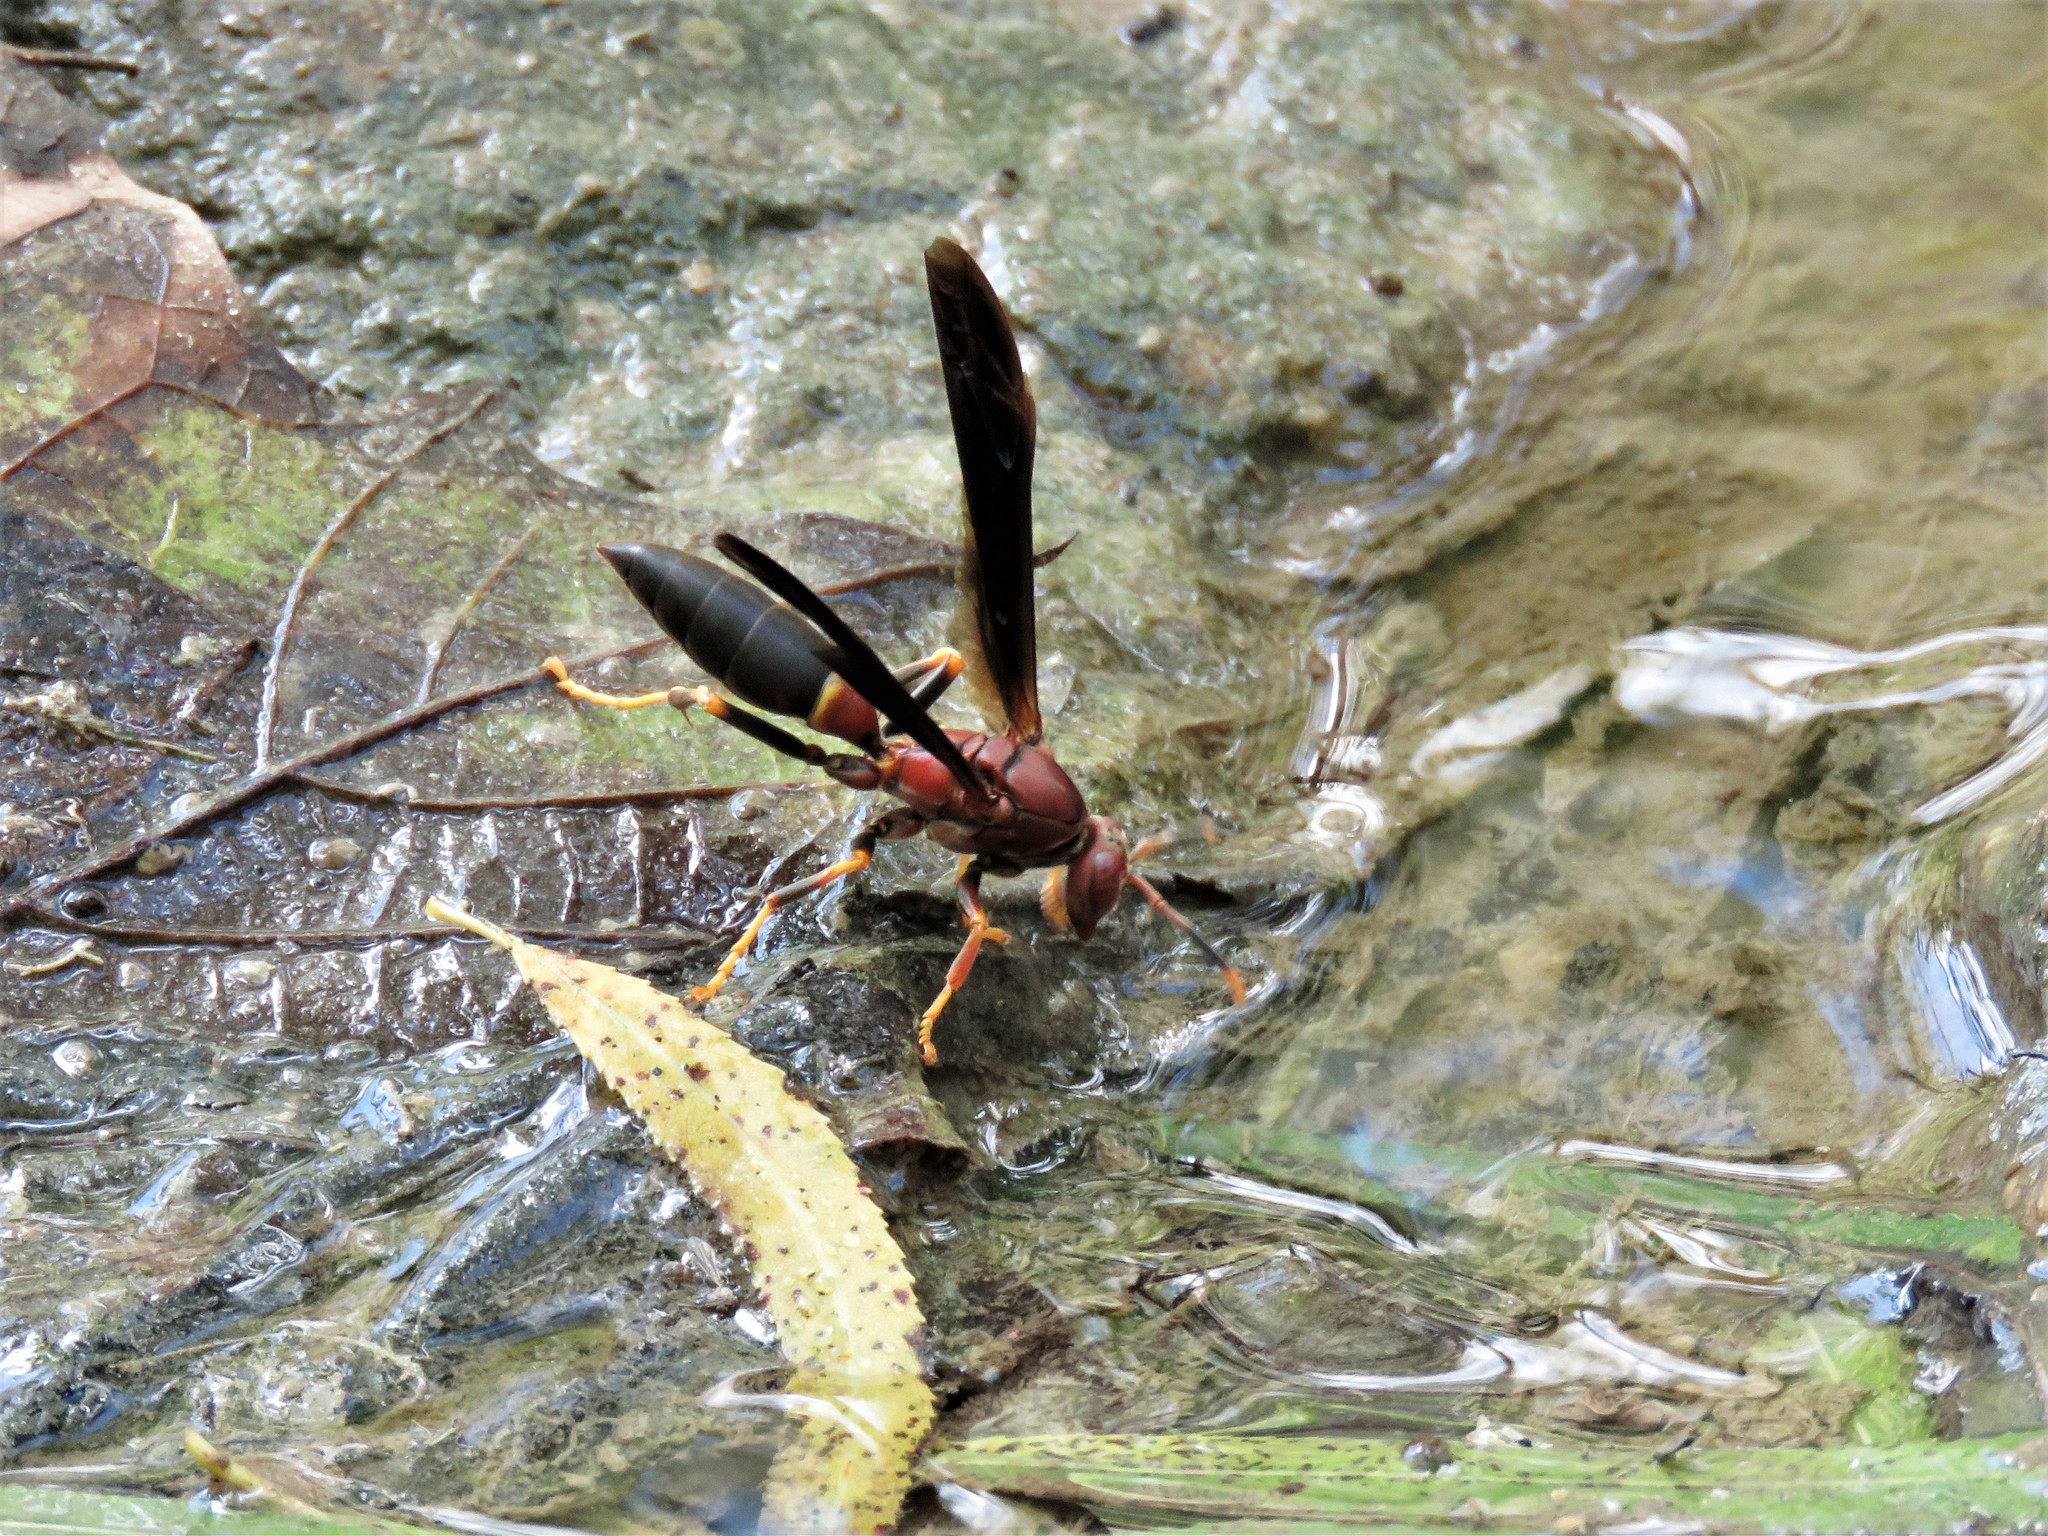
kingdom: Animalia
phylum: Arthropoda
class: Insecta
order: Hymenoptera
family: Eumenidae
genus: Polistes
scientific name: Polistes annularis
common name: Ringed paper wasp
